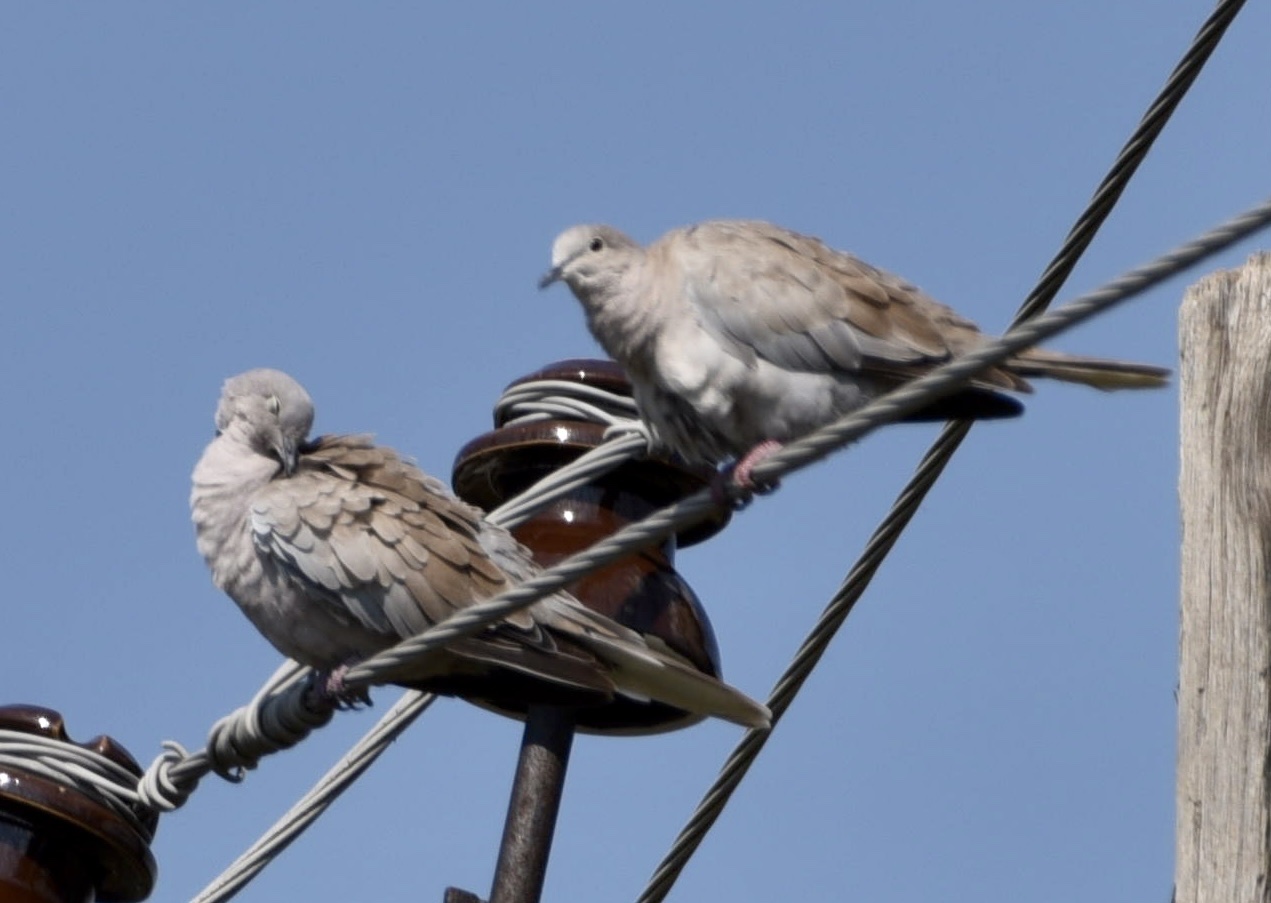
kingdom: Animalia
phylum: Chordata
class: Aves
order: Columbiformes
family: Columbidae
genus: Streptopelia
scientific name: Streptopelia decaocto
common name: Eurasian collared dove
